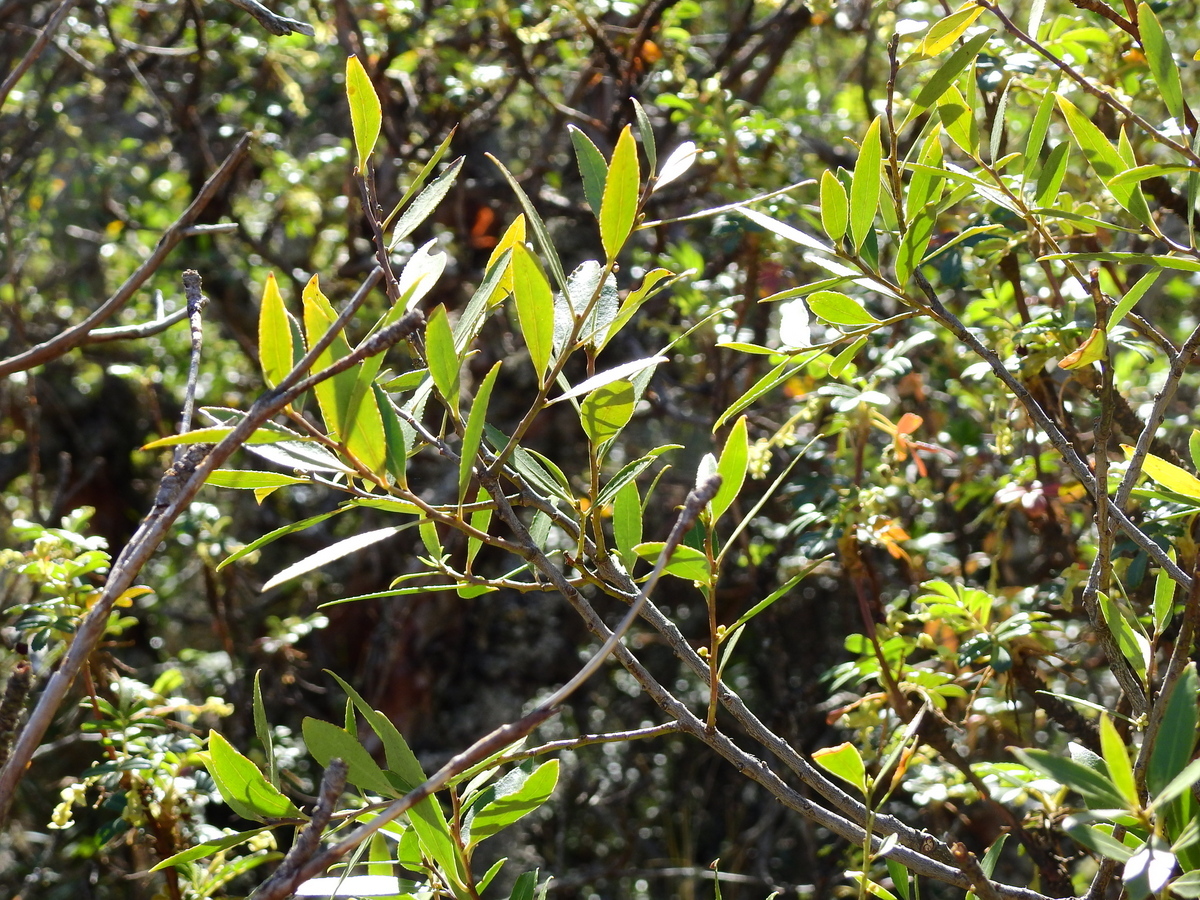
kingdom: Plantae
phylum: Tracheophyta
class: Magnoliopsida
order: Celastrales
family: Celastraceae
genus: Maytenus
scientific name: Maytenus boaria
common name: Mayten
